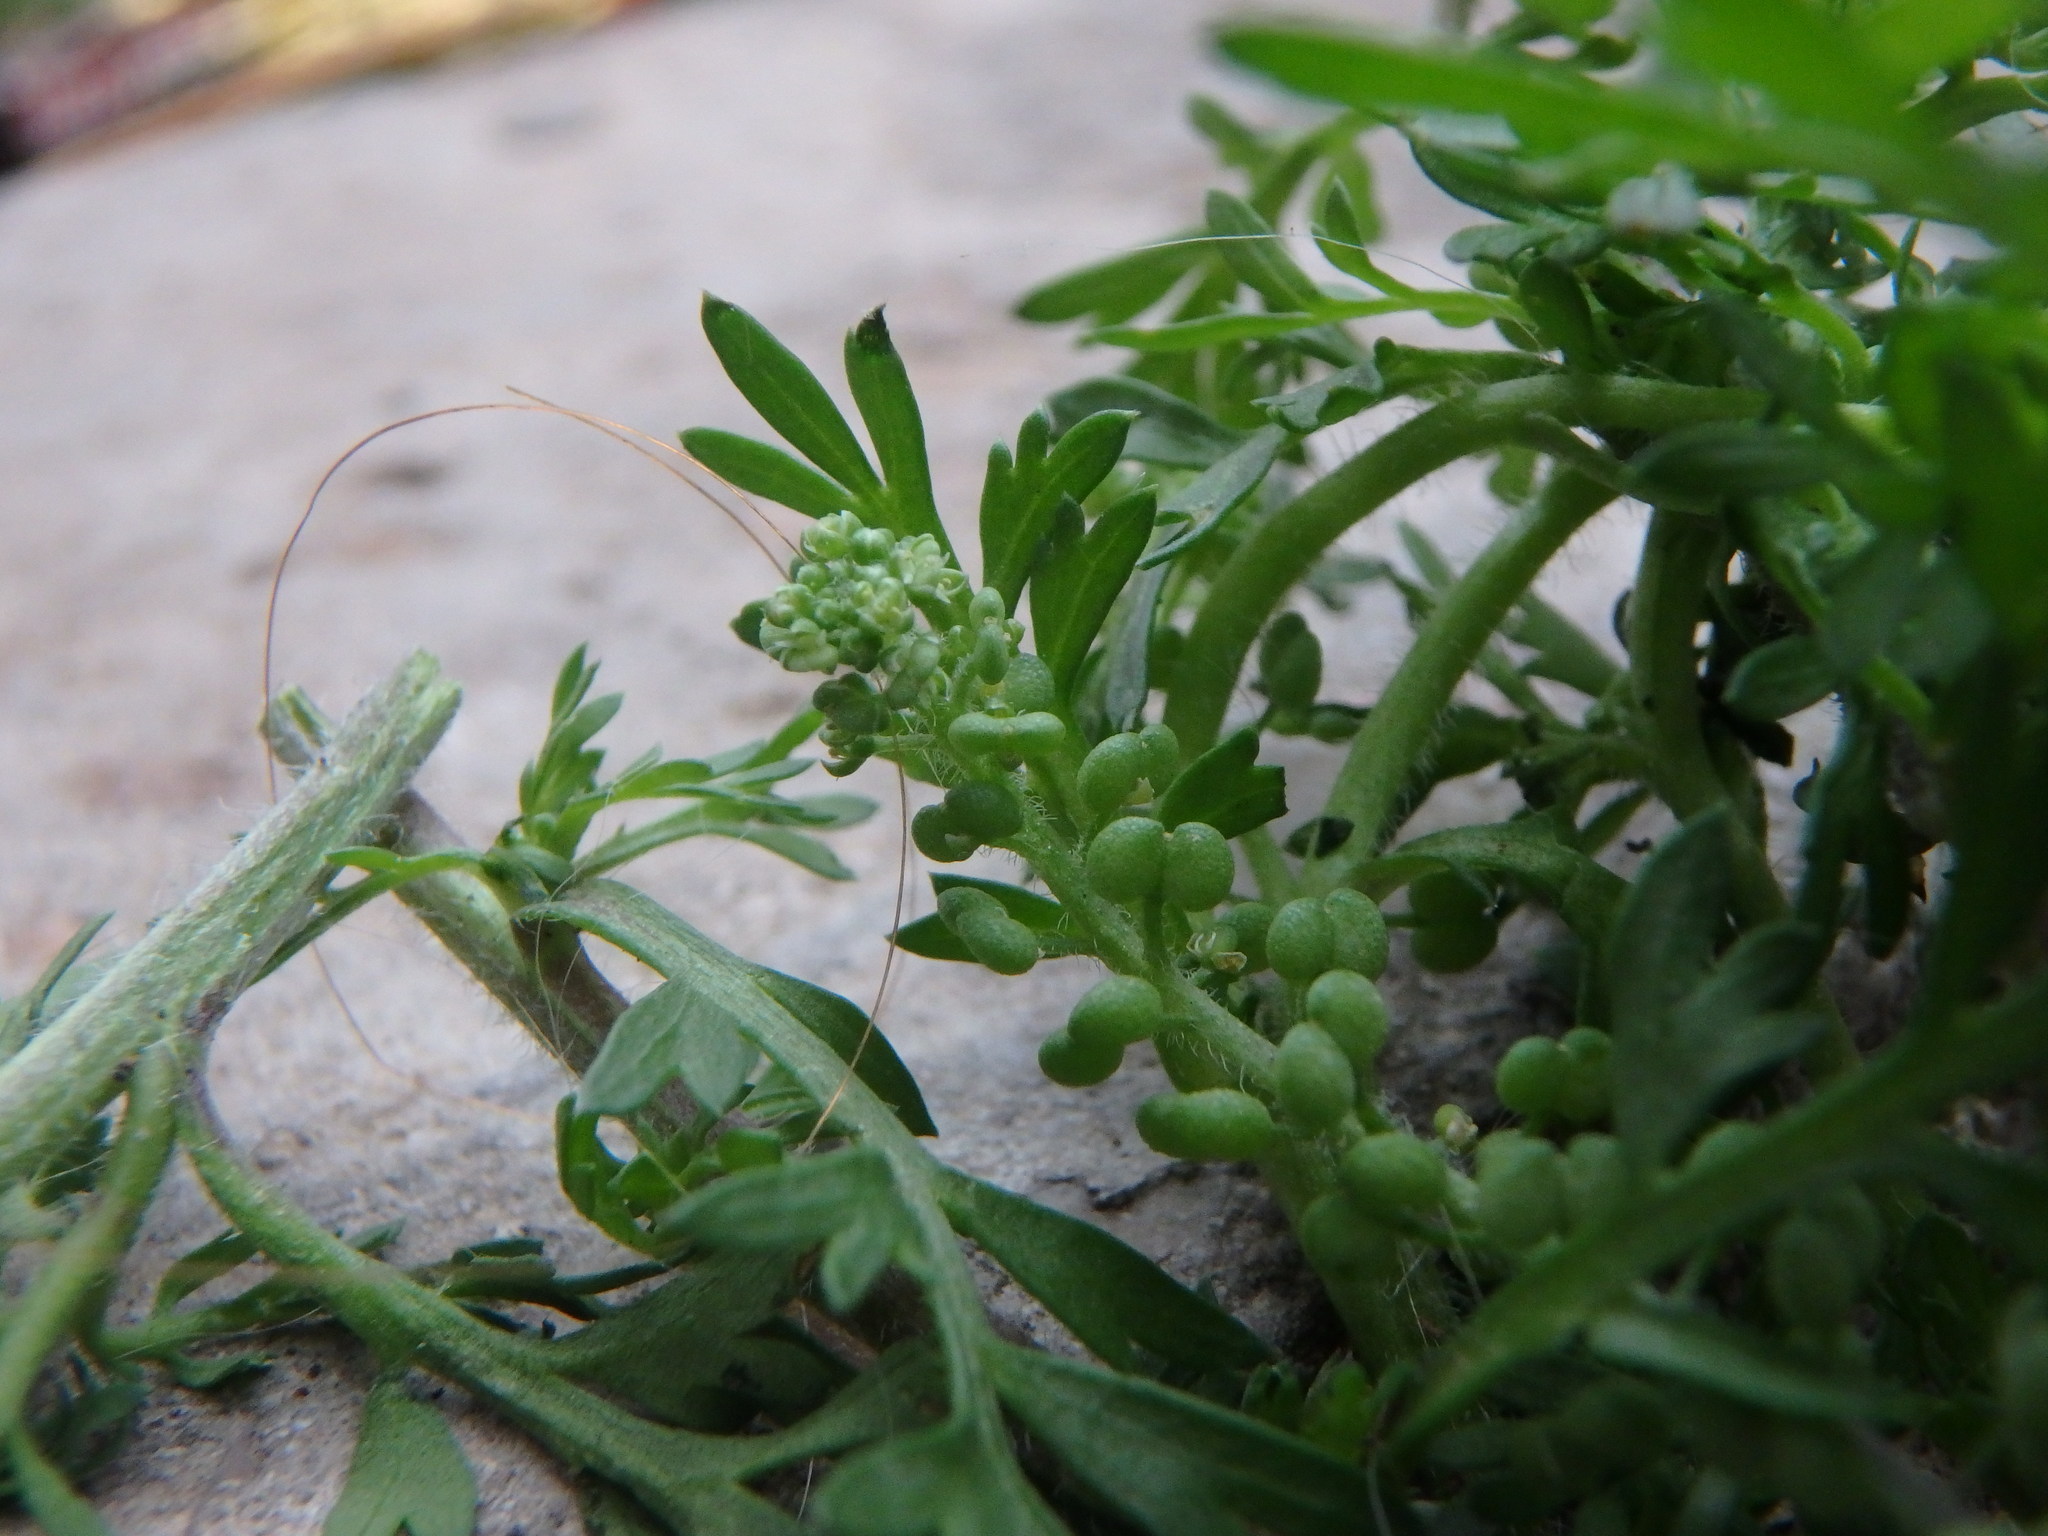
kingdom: Plantae
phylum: Tracheophyta
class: Magnoliopsida
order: Brassicales
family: Brassicaceae
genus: Lepidium
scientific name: Lepidium didymum
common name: Lesser swinecress
